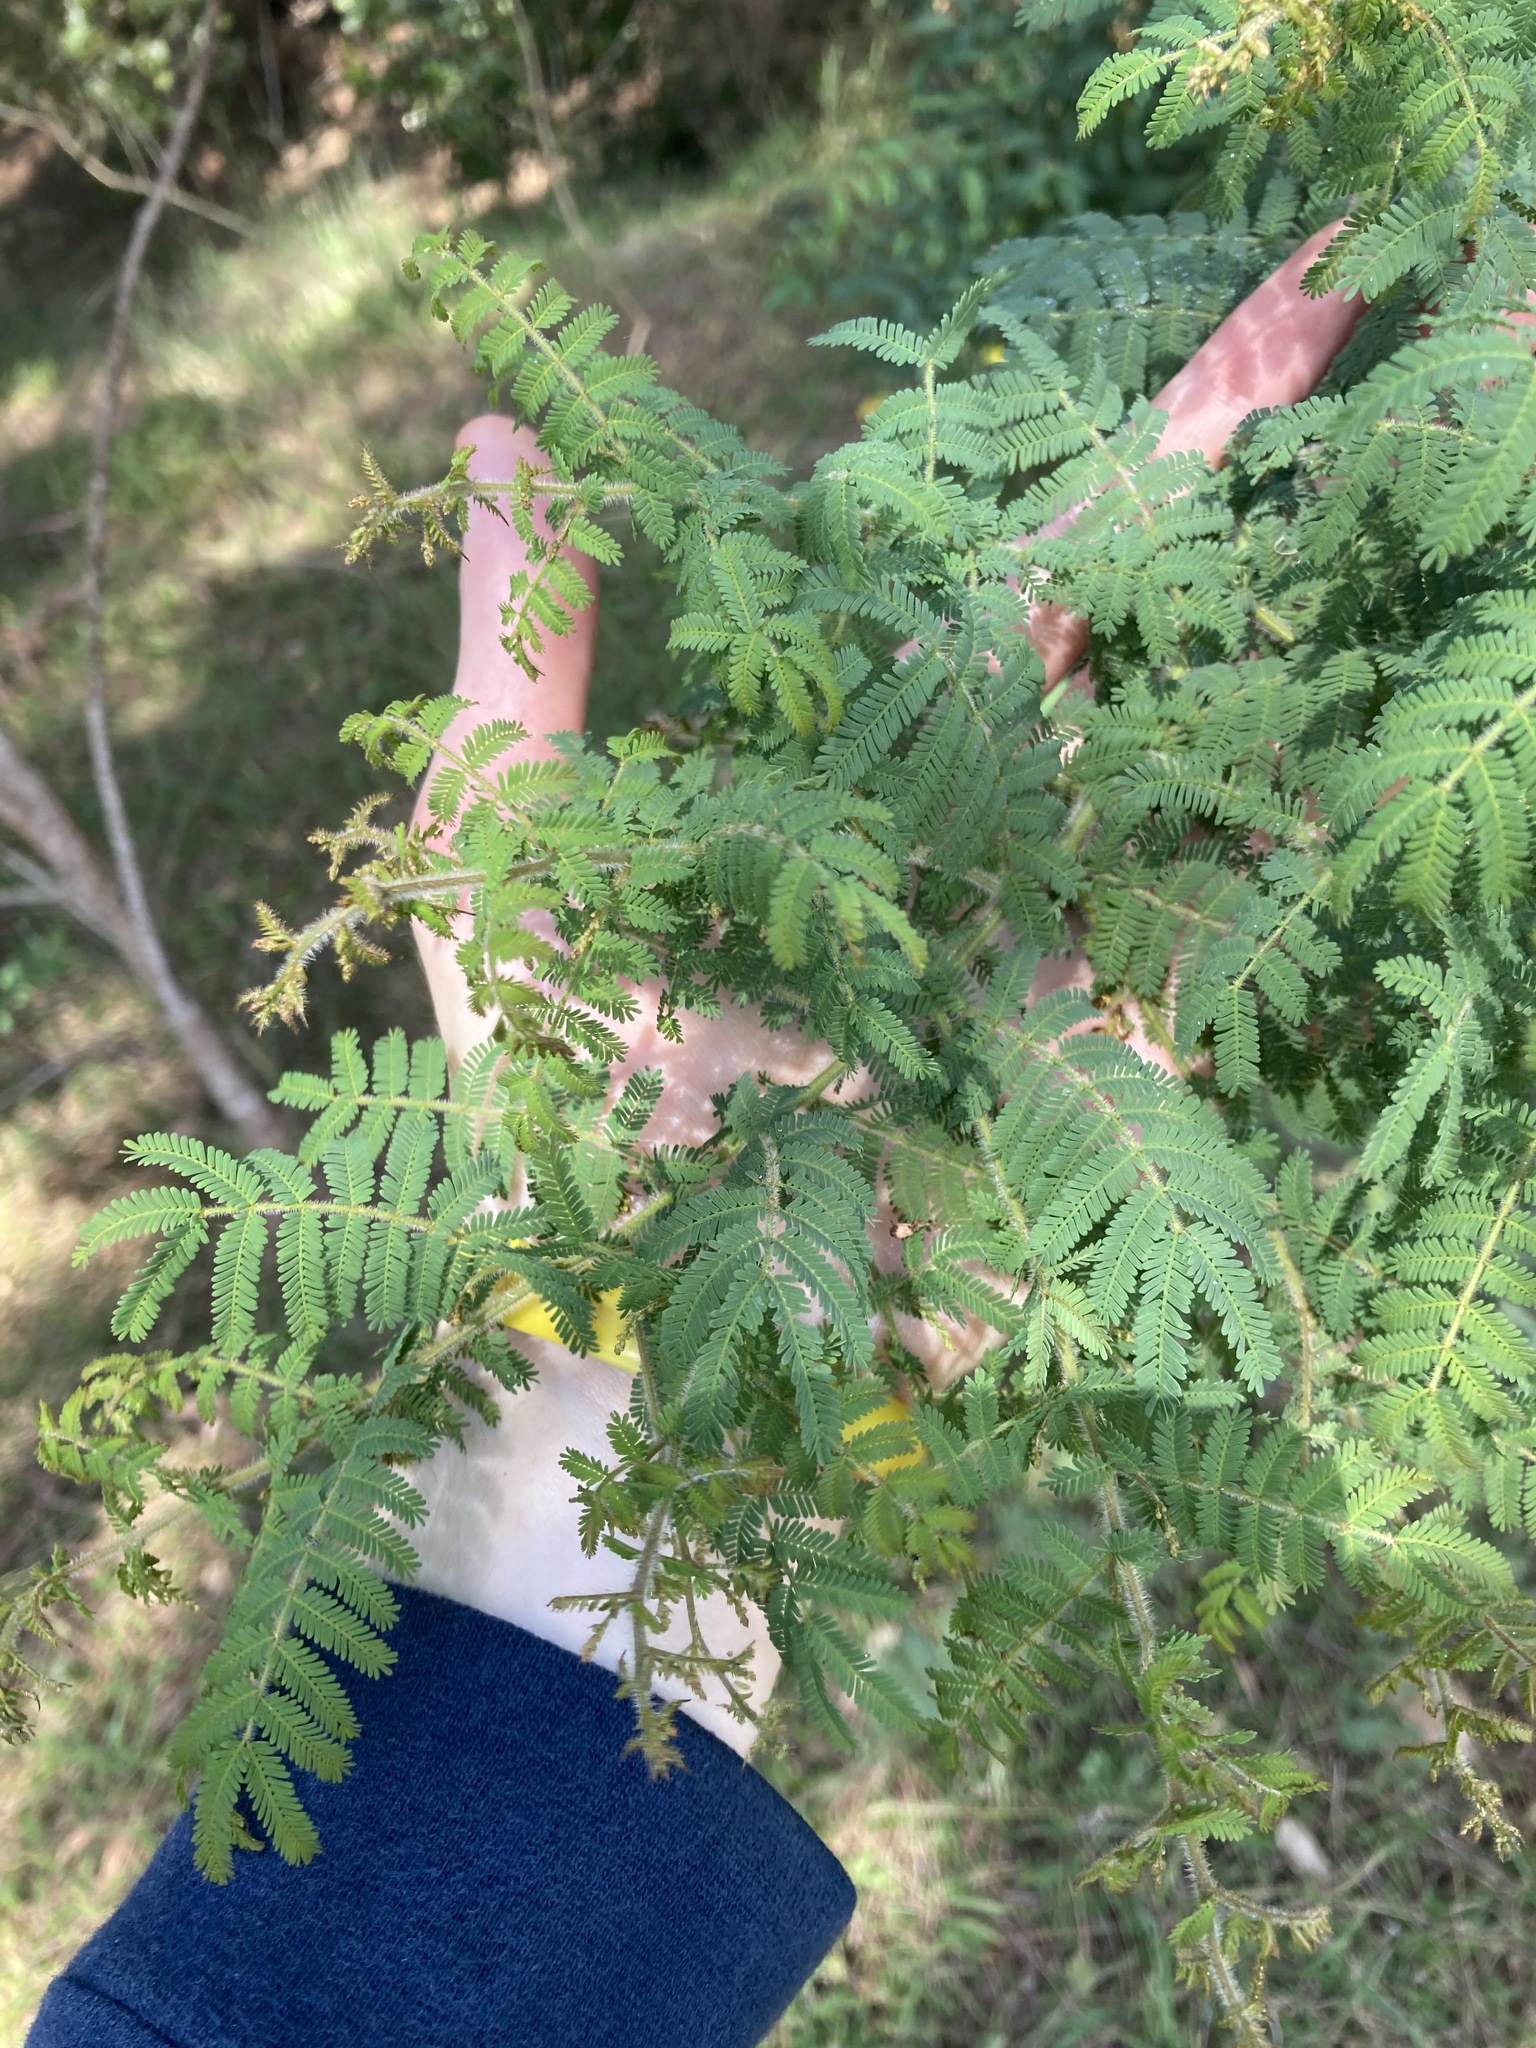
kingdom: Plantae
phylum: Tracheophyta
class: Magnoliopsida
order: Fabales
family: Fabaceae
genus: Acacia
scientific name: Acacia pubescens
